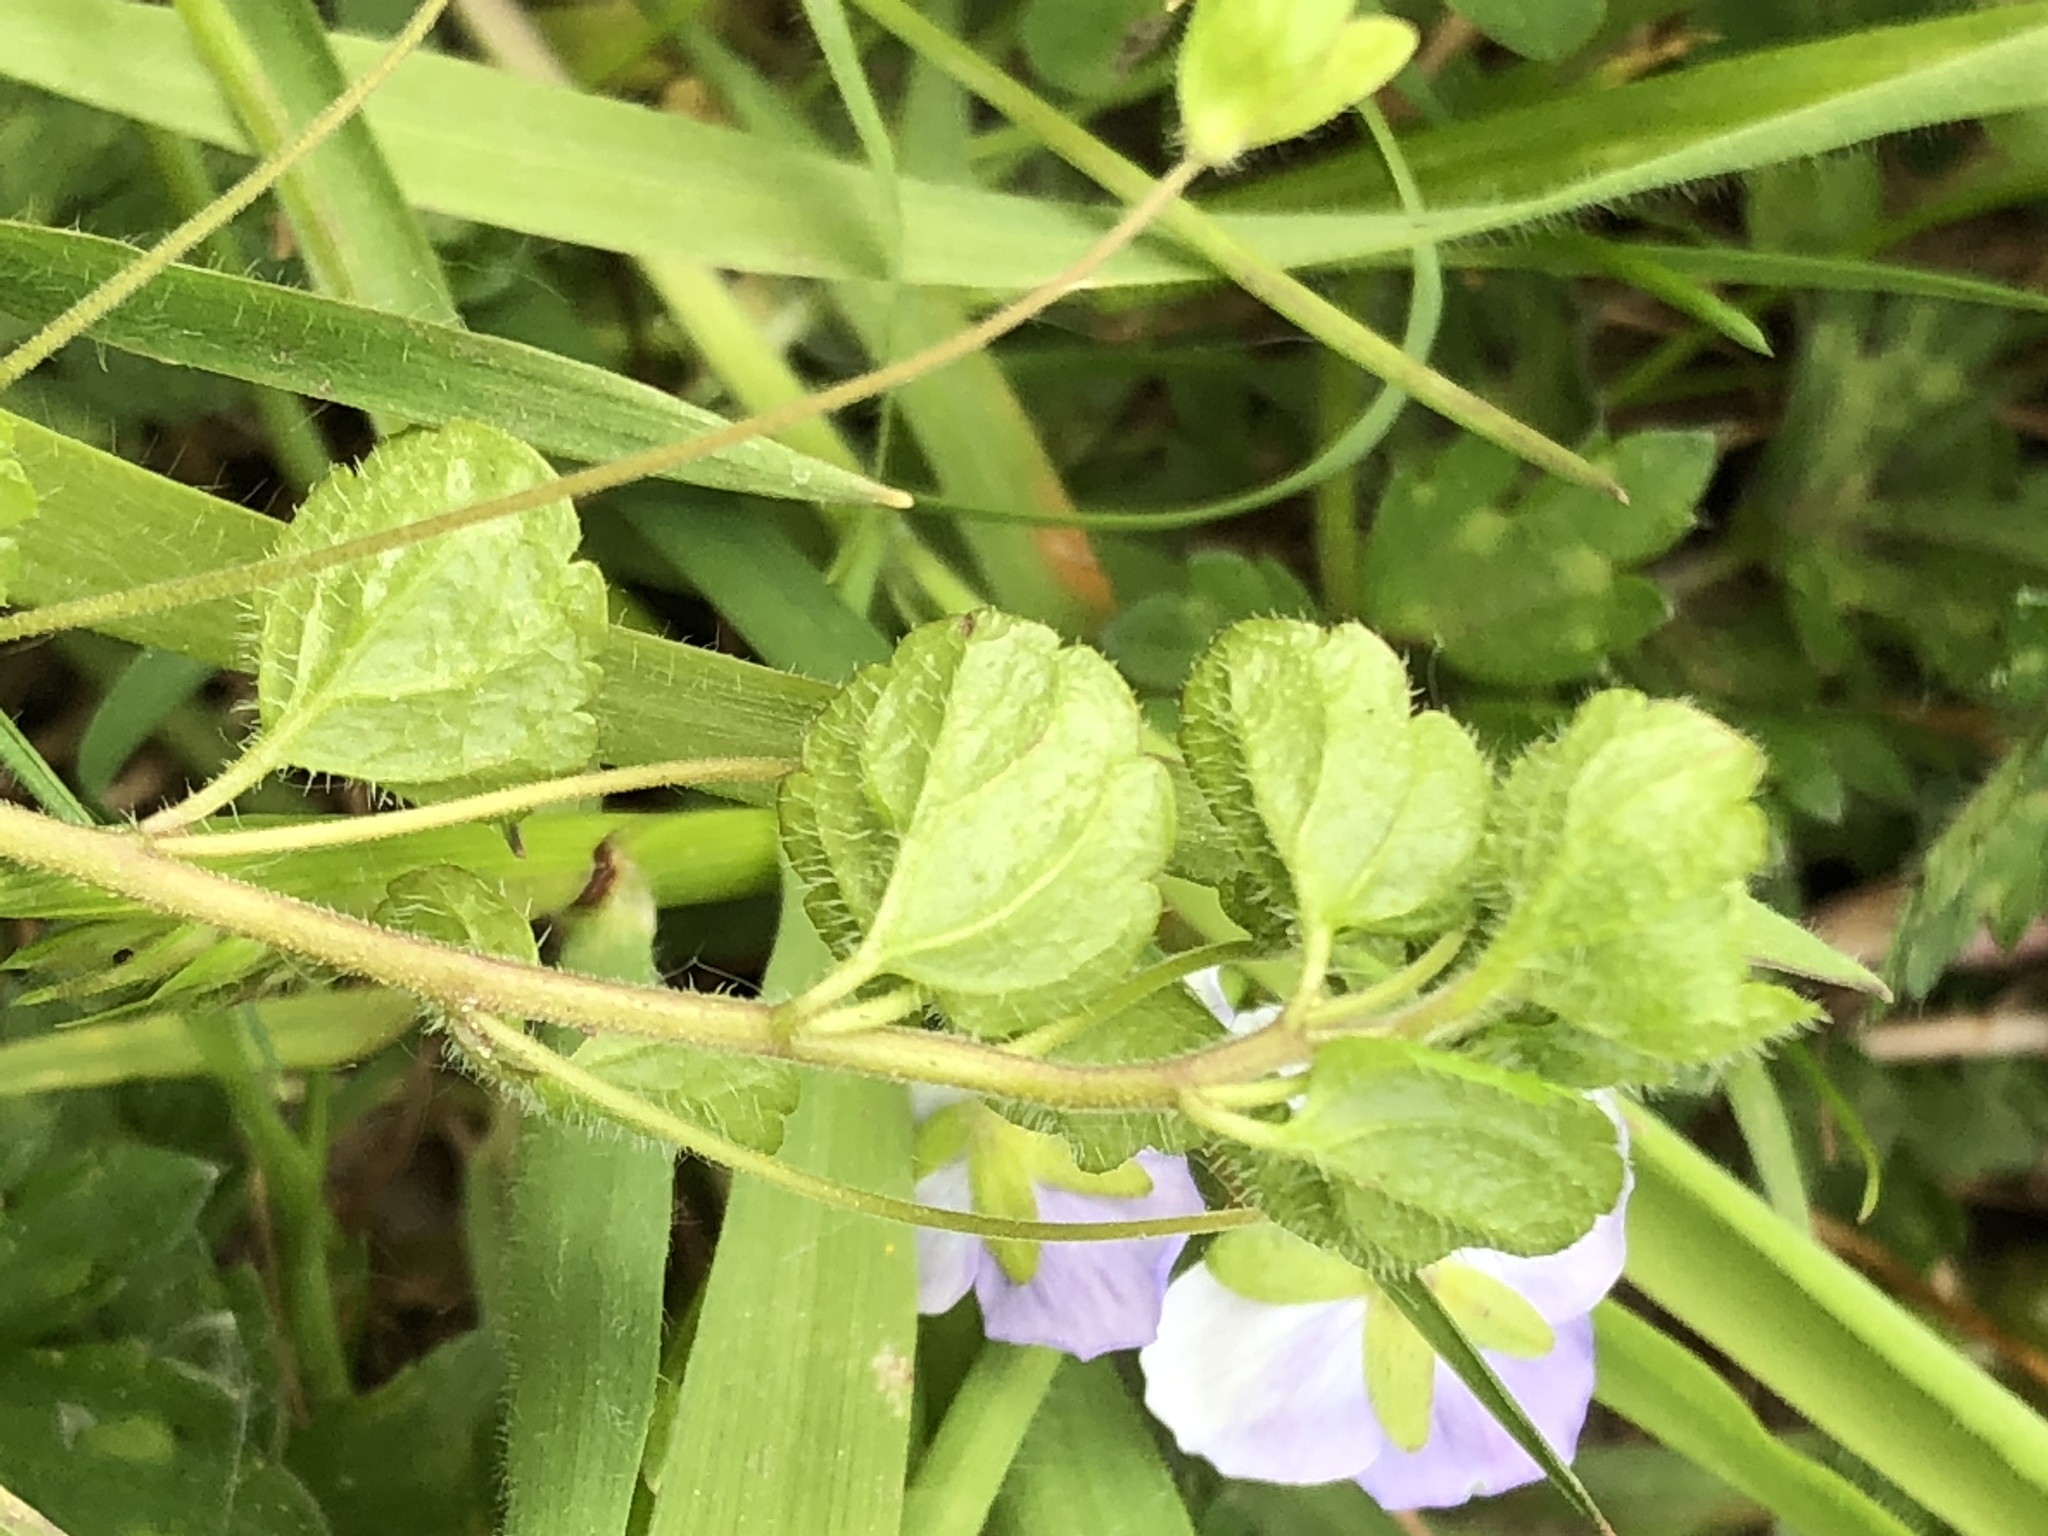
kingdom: Plantae
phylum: Tracheophyta
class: Magnoliopsida
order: Lamiales
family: Plantaginaceae
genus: Veronica
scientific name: Veronica filiformis
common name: Slender speedwell
